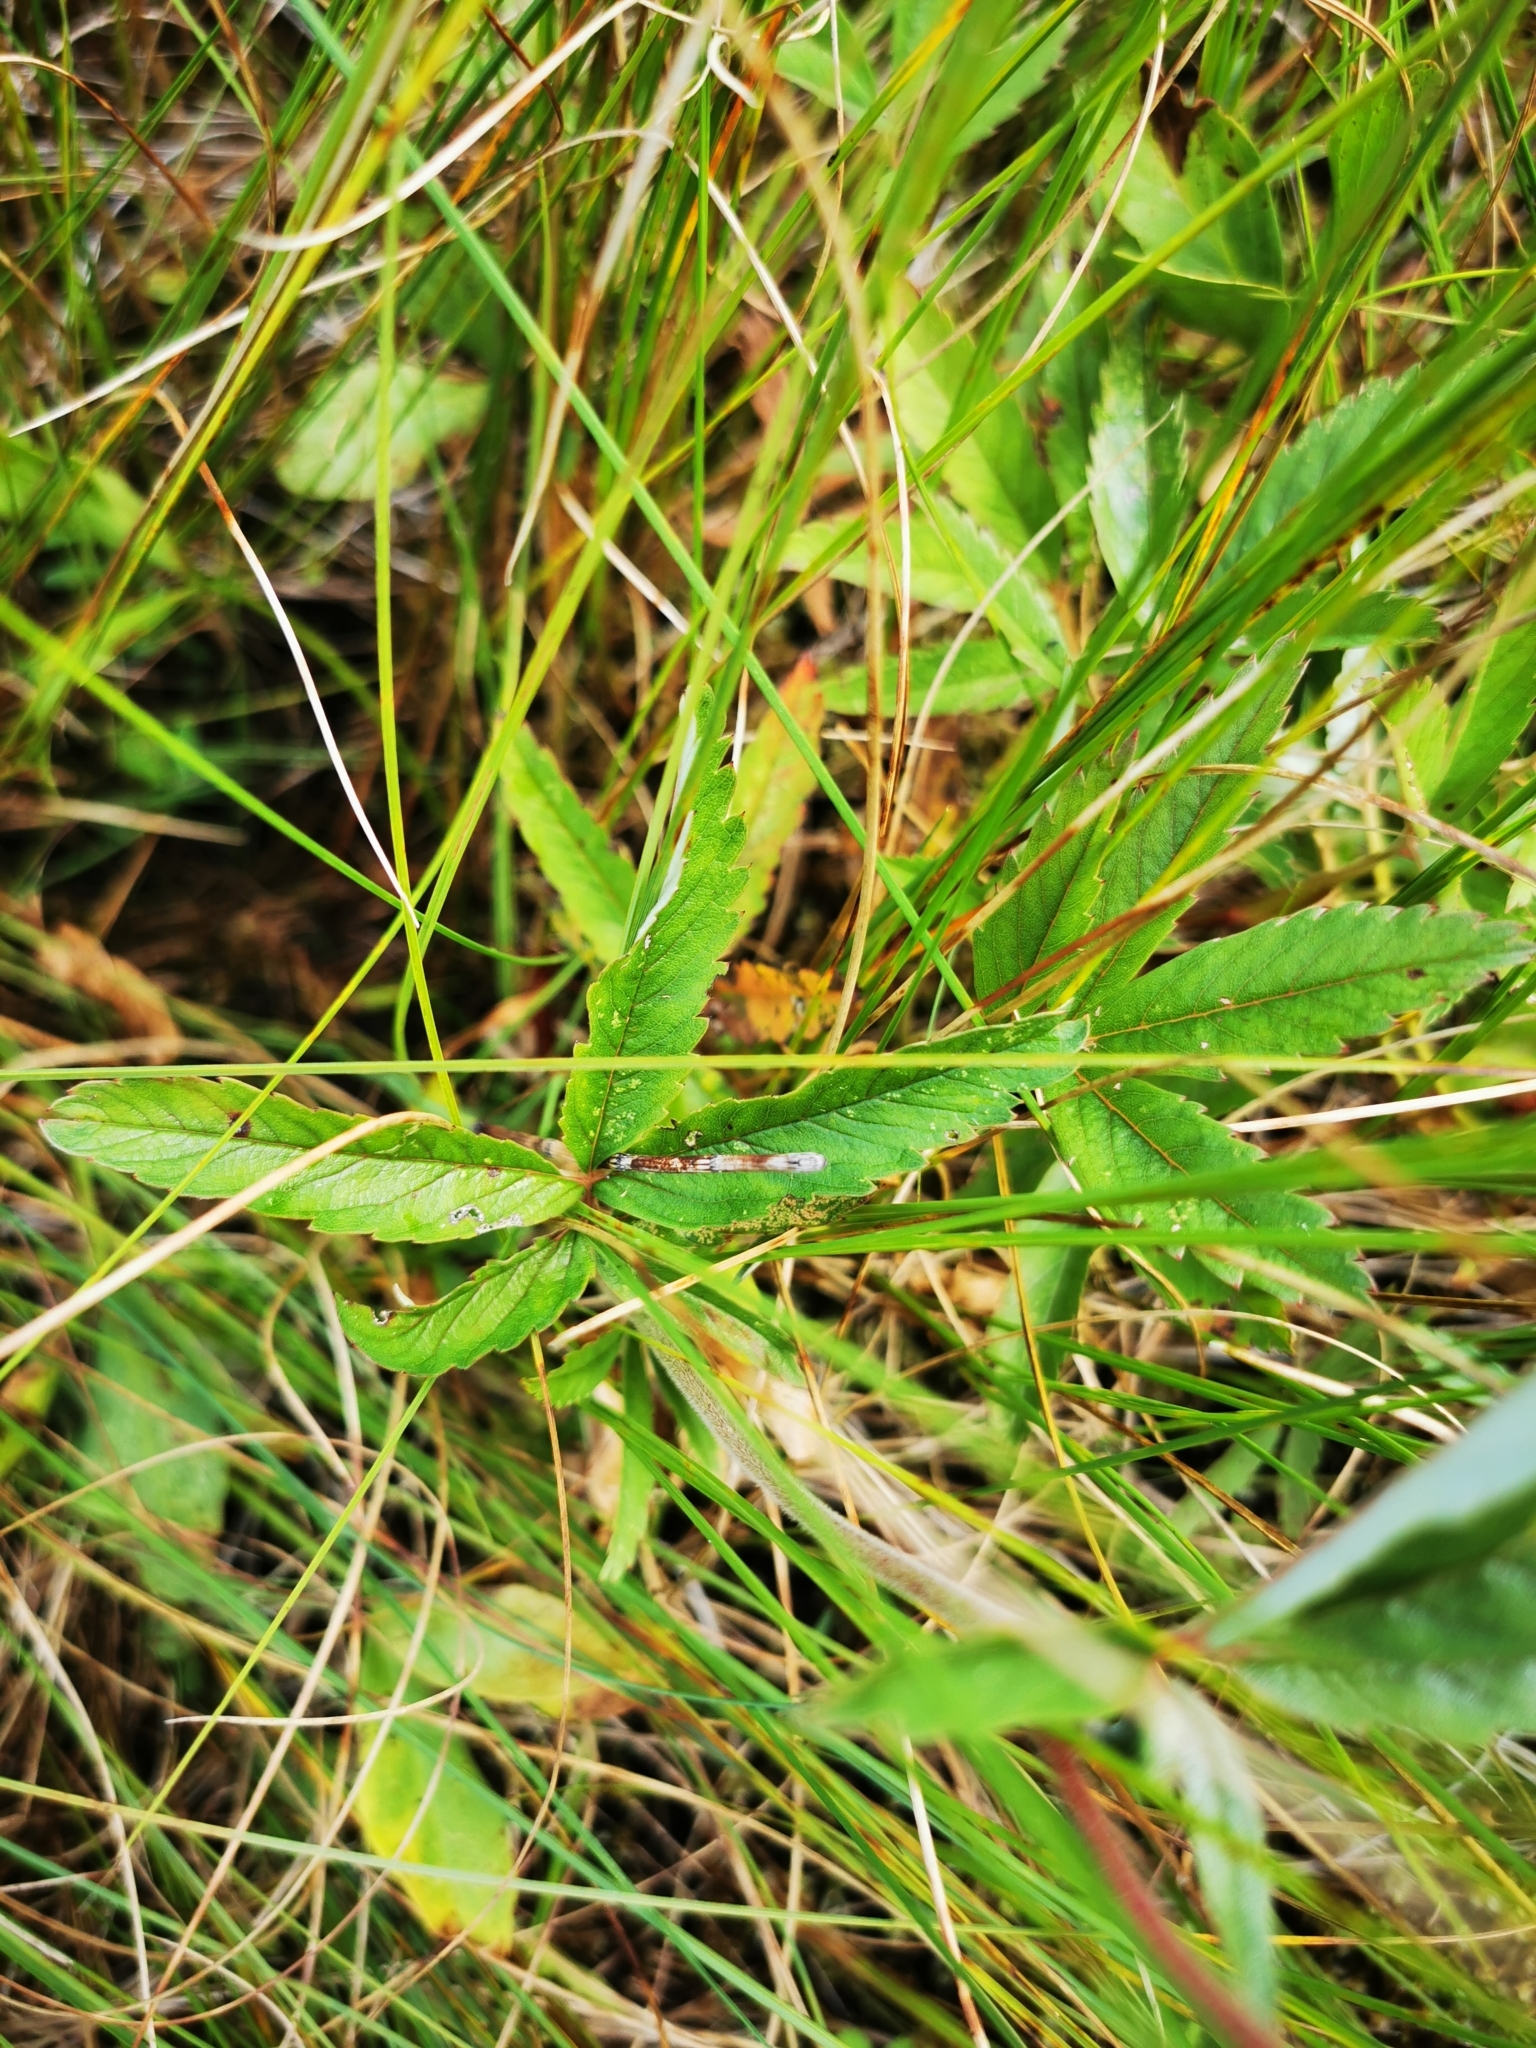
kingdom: Plantae
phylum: Tracheophyta
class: Magnoliopsida
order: Rosales
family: Rosaceae
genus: Comarum
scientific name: Comarum palustre
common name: Marsh cinquefoil
